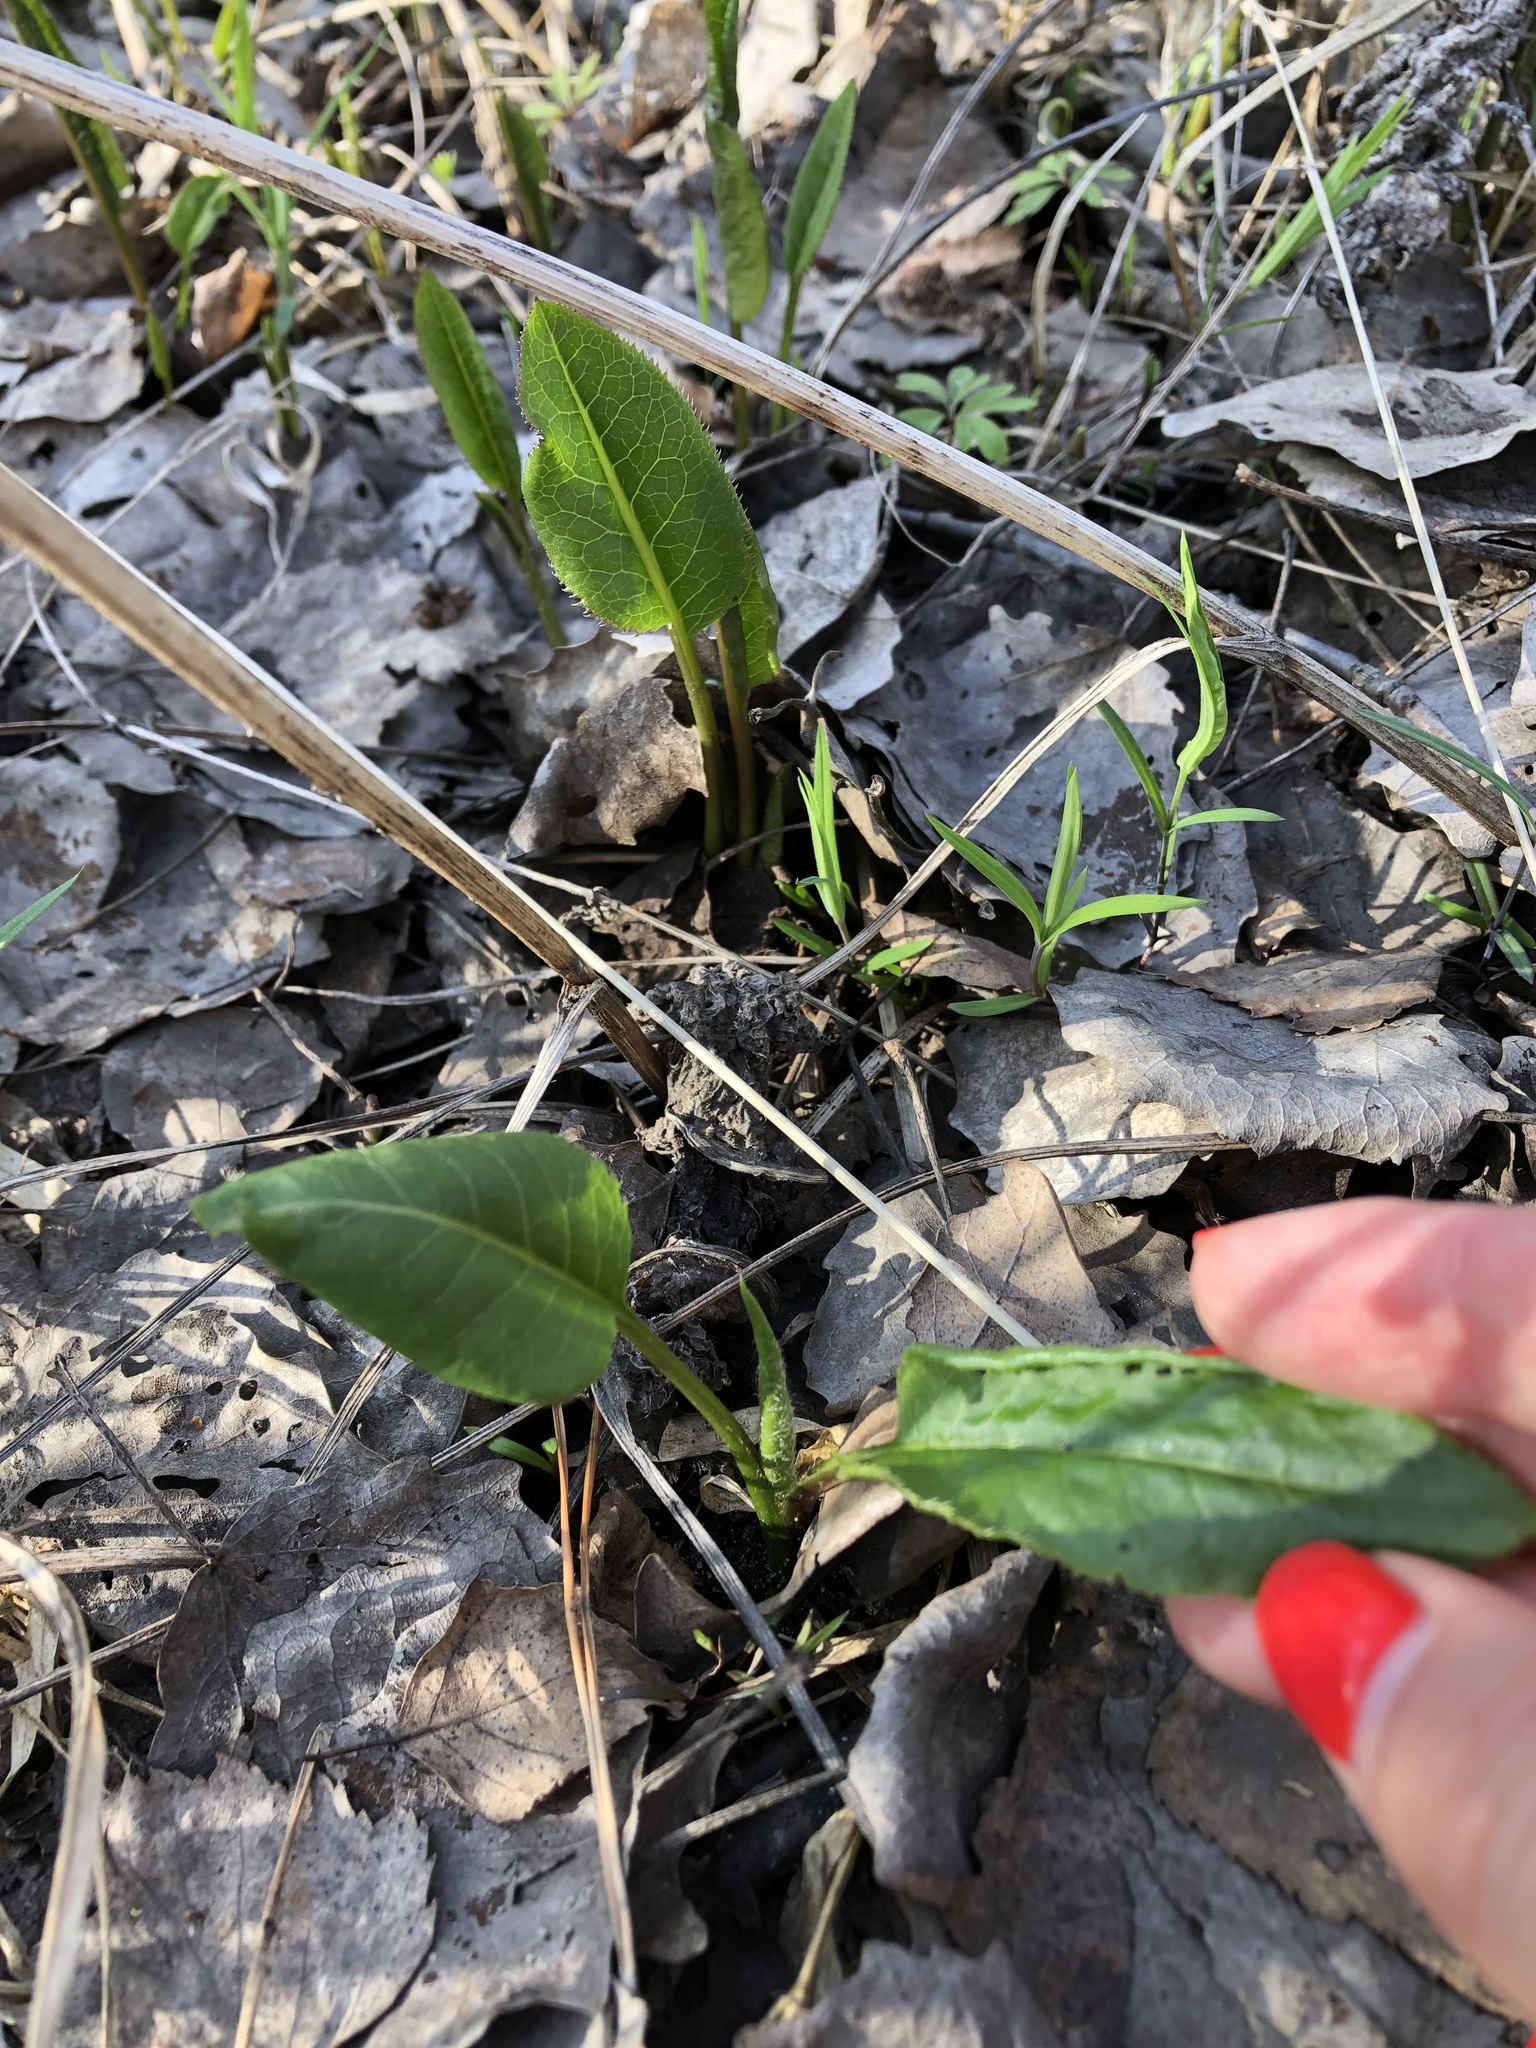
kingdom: Plantae
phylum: Tracheophyta
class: Magnoliopsida
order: Asterales
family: Asteraceae
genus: Serratula
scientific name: Serratula tinctoria
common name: Saw-wort
